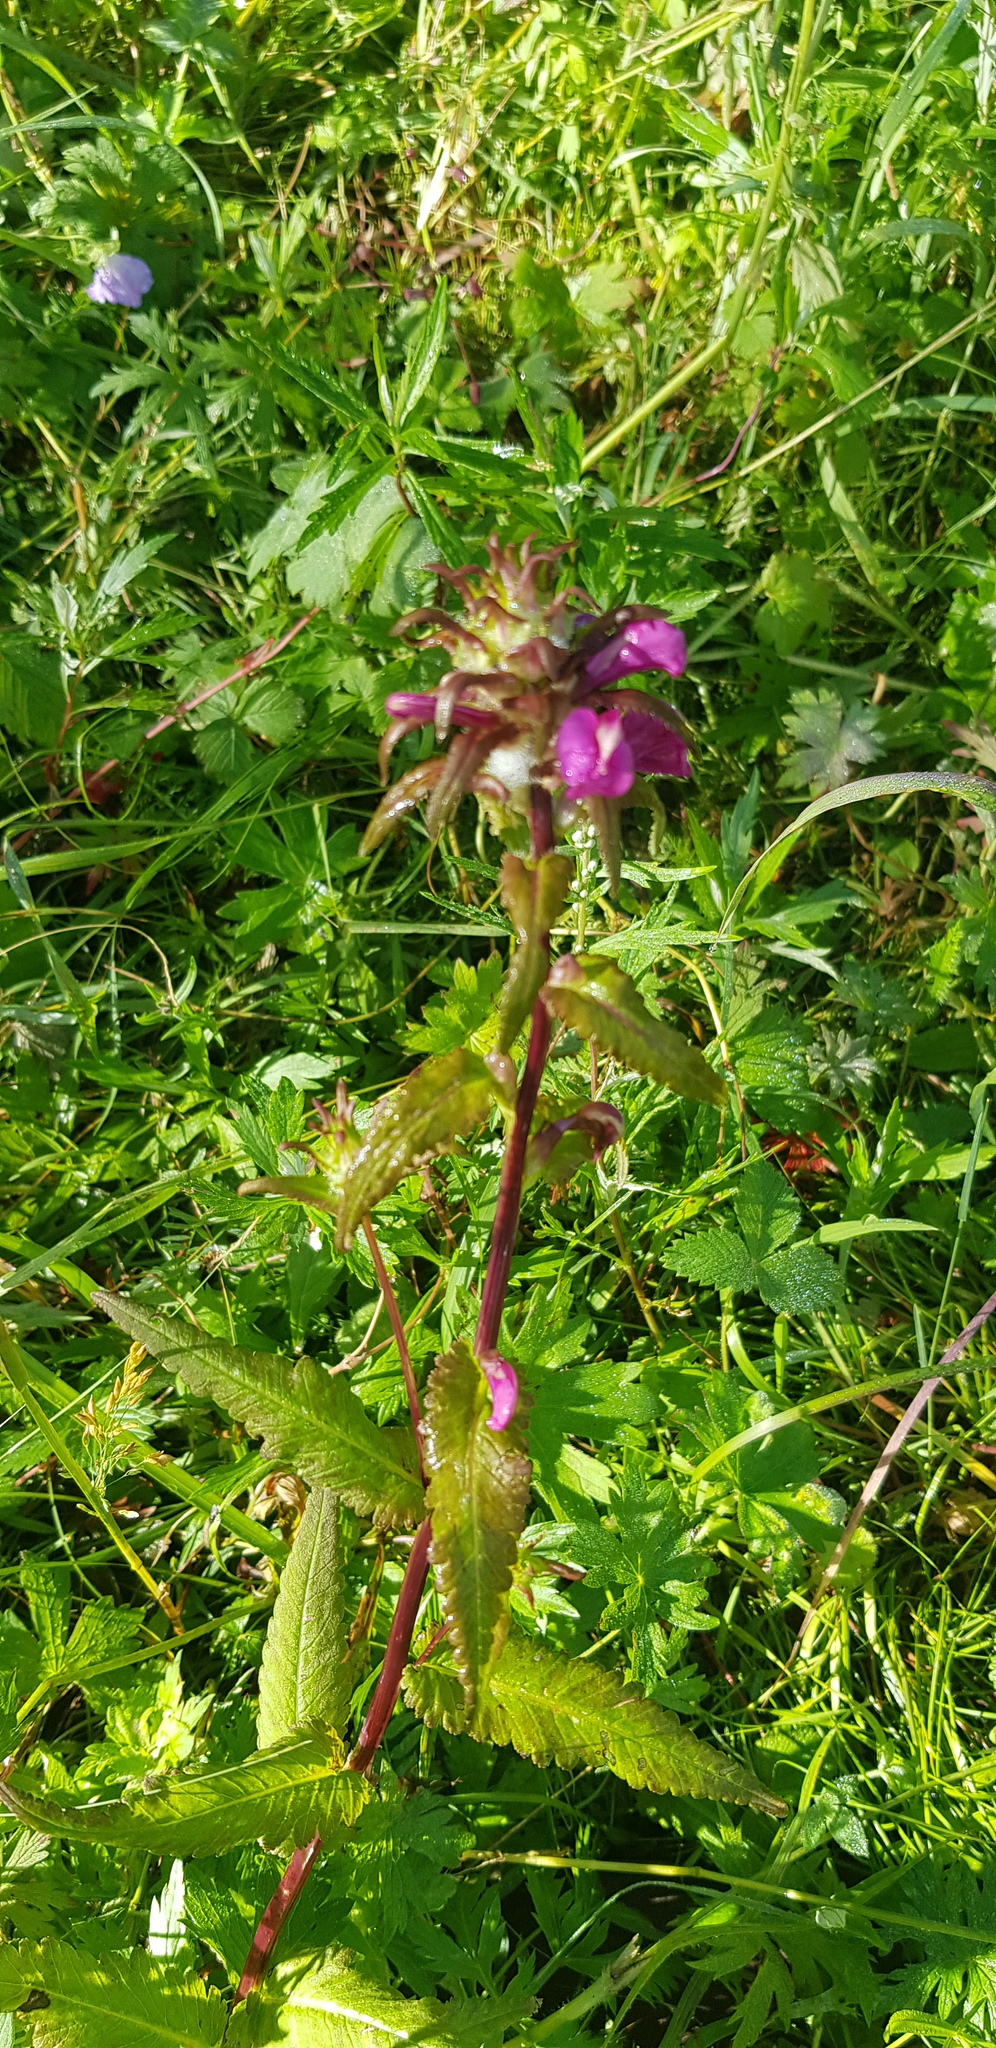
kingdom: Plantae
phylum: Tracheophyta
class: Magnoliopsida
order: Lamiales
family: Orobanchaceae
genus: Pedicularis
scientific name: Pedicularis resupinata
